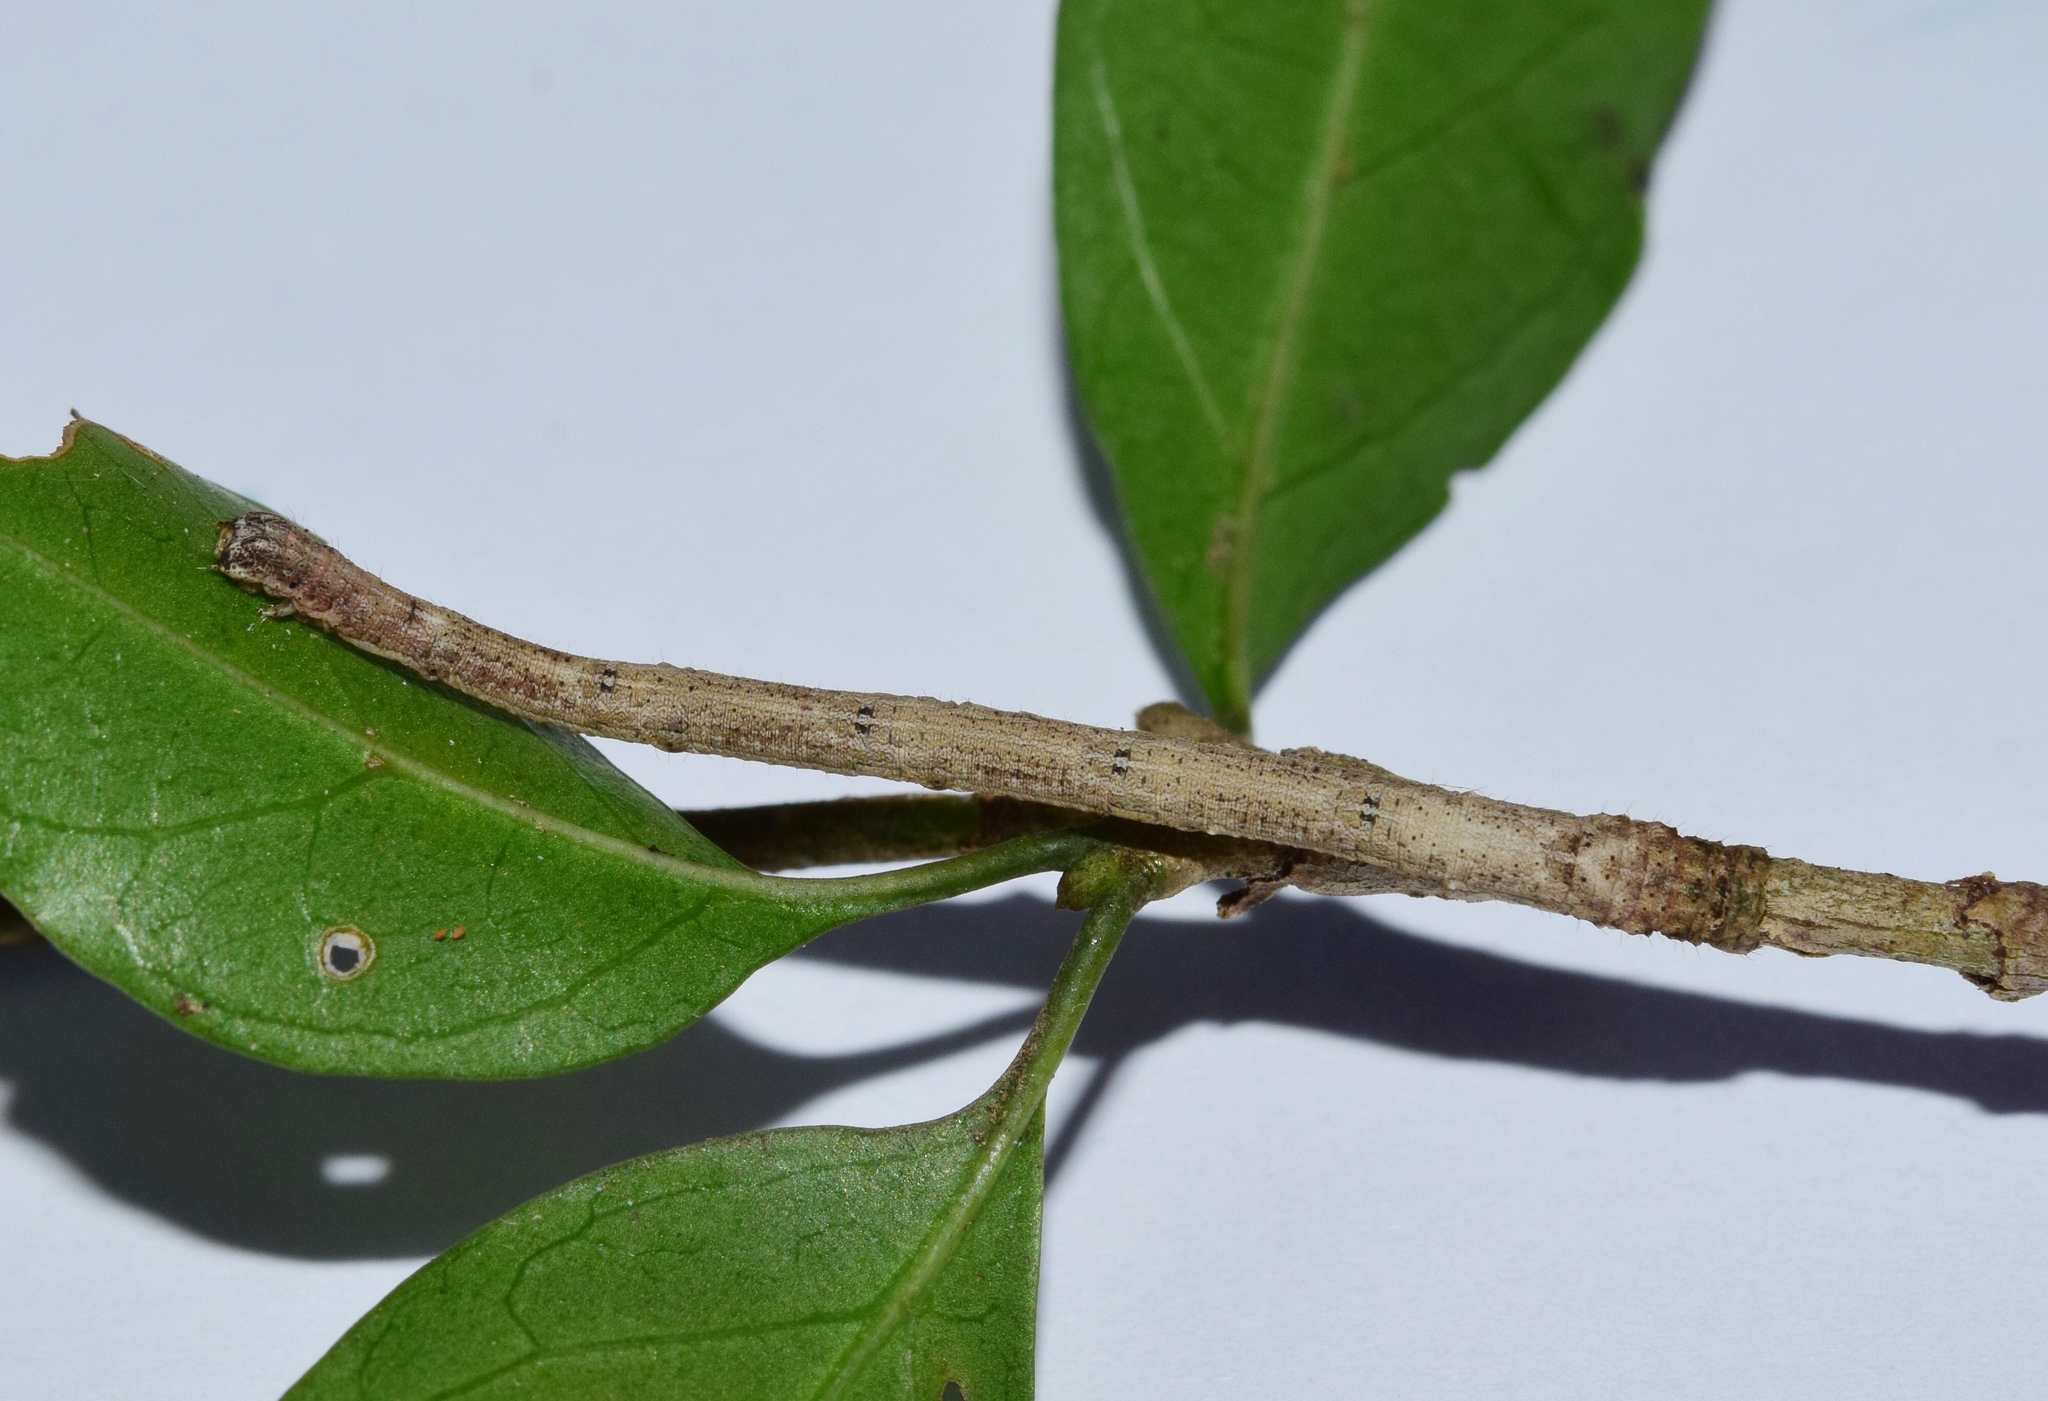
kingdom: Animalia
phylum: Arthropoda
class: Insecta
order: Lepidoptera
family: Geometridae
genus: Epicosymbia
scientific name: Epicosymbia nitidata
